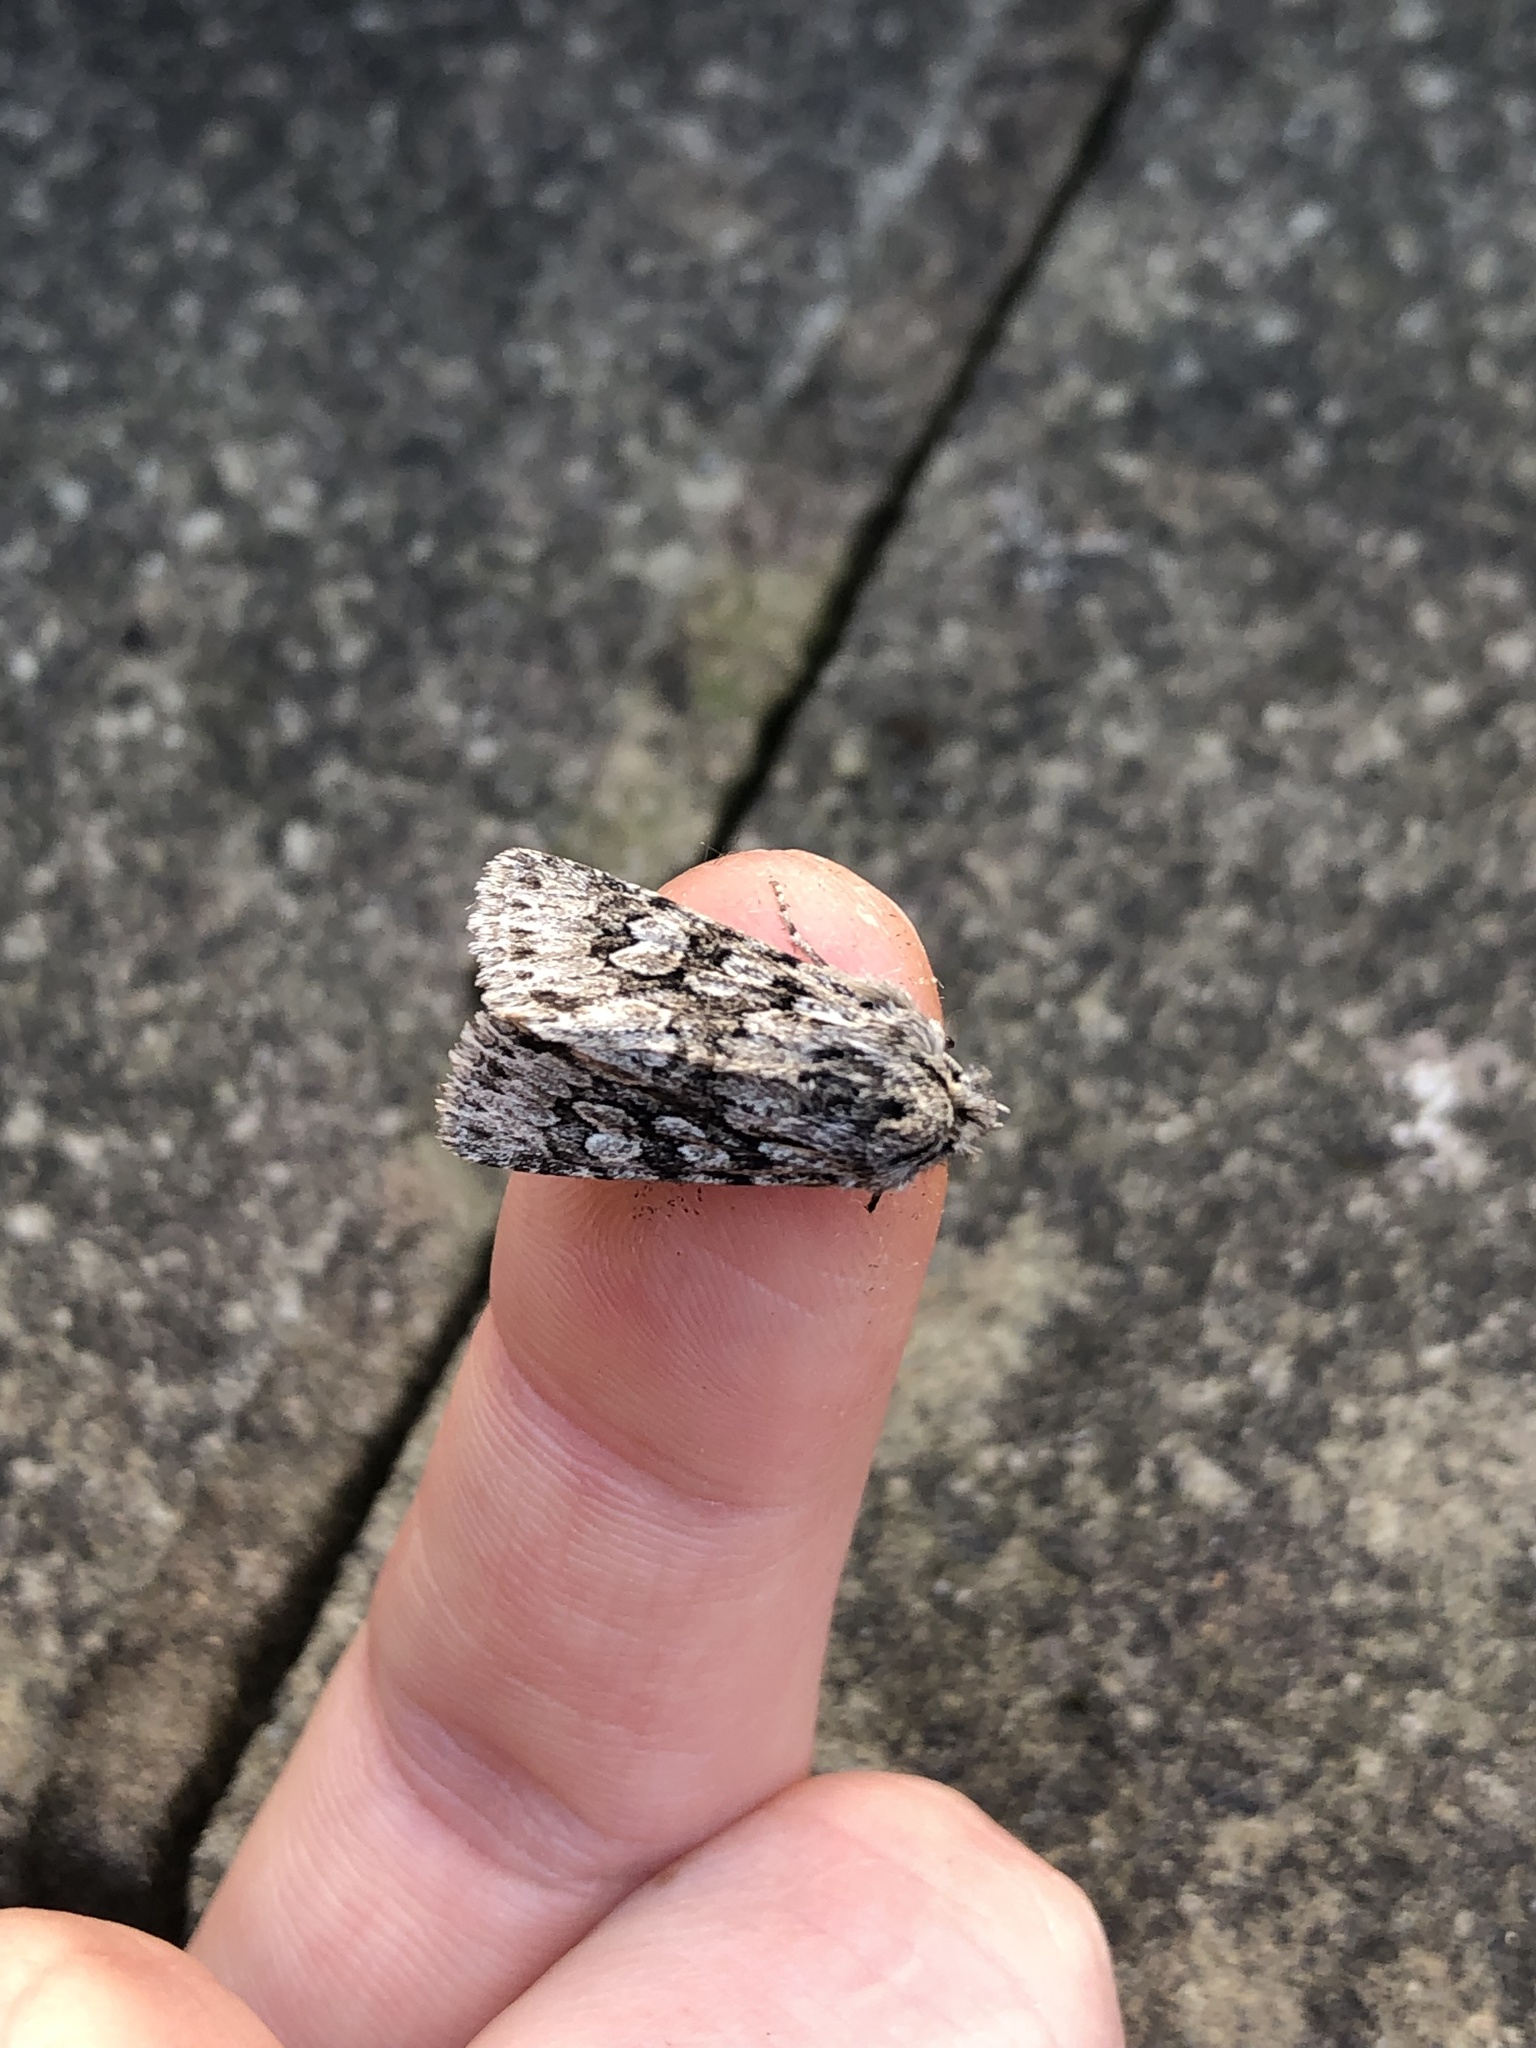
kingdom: Animalia
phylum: Arthropoda
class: Insecta
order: Lepidoptera
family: Noctuidae
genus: Xylocampa
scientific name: Xylocampa areola
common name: Early grey
